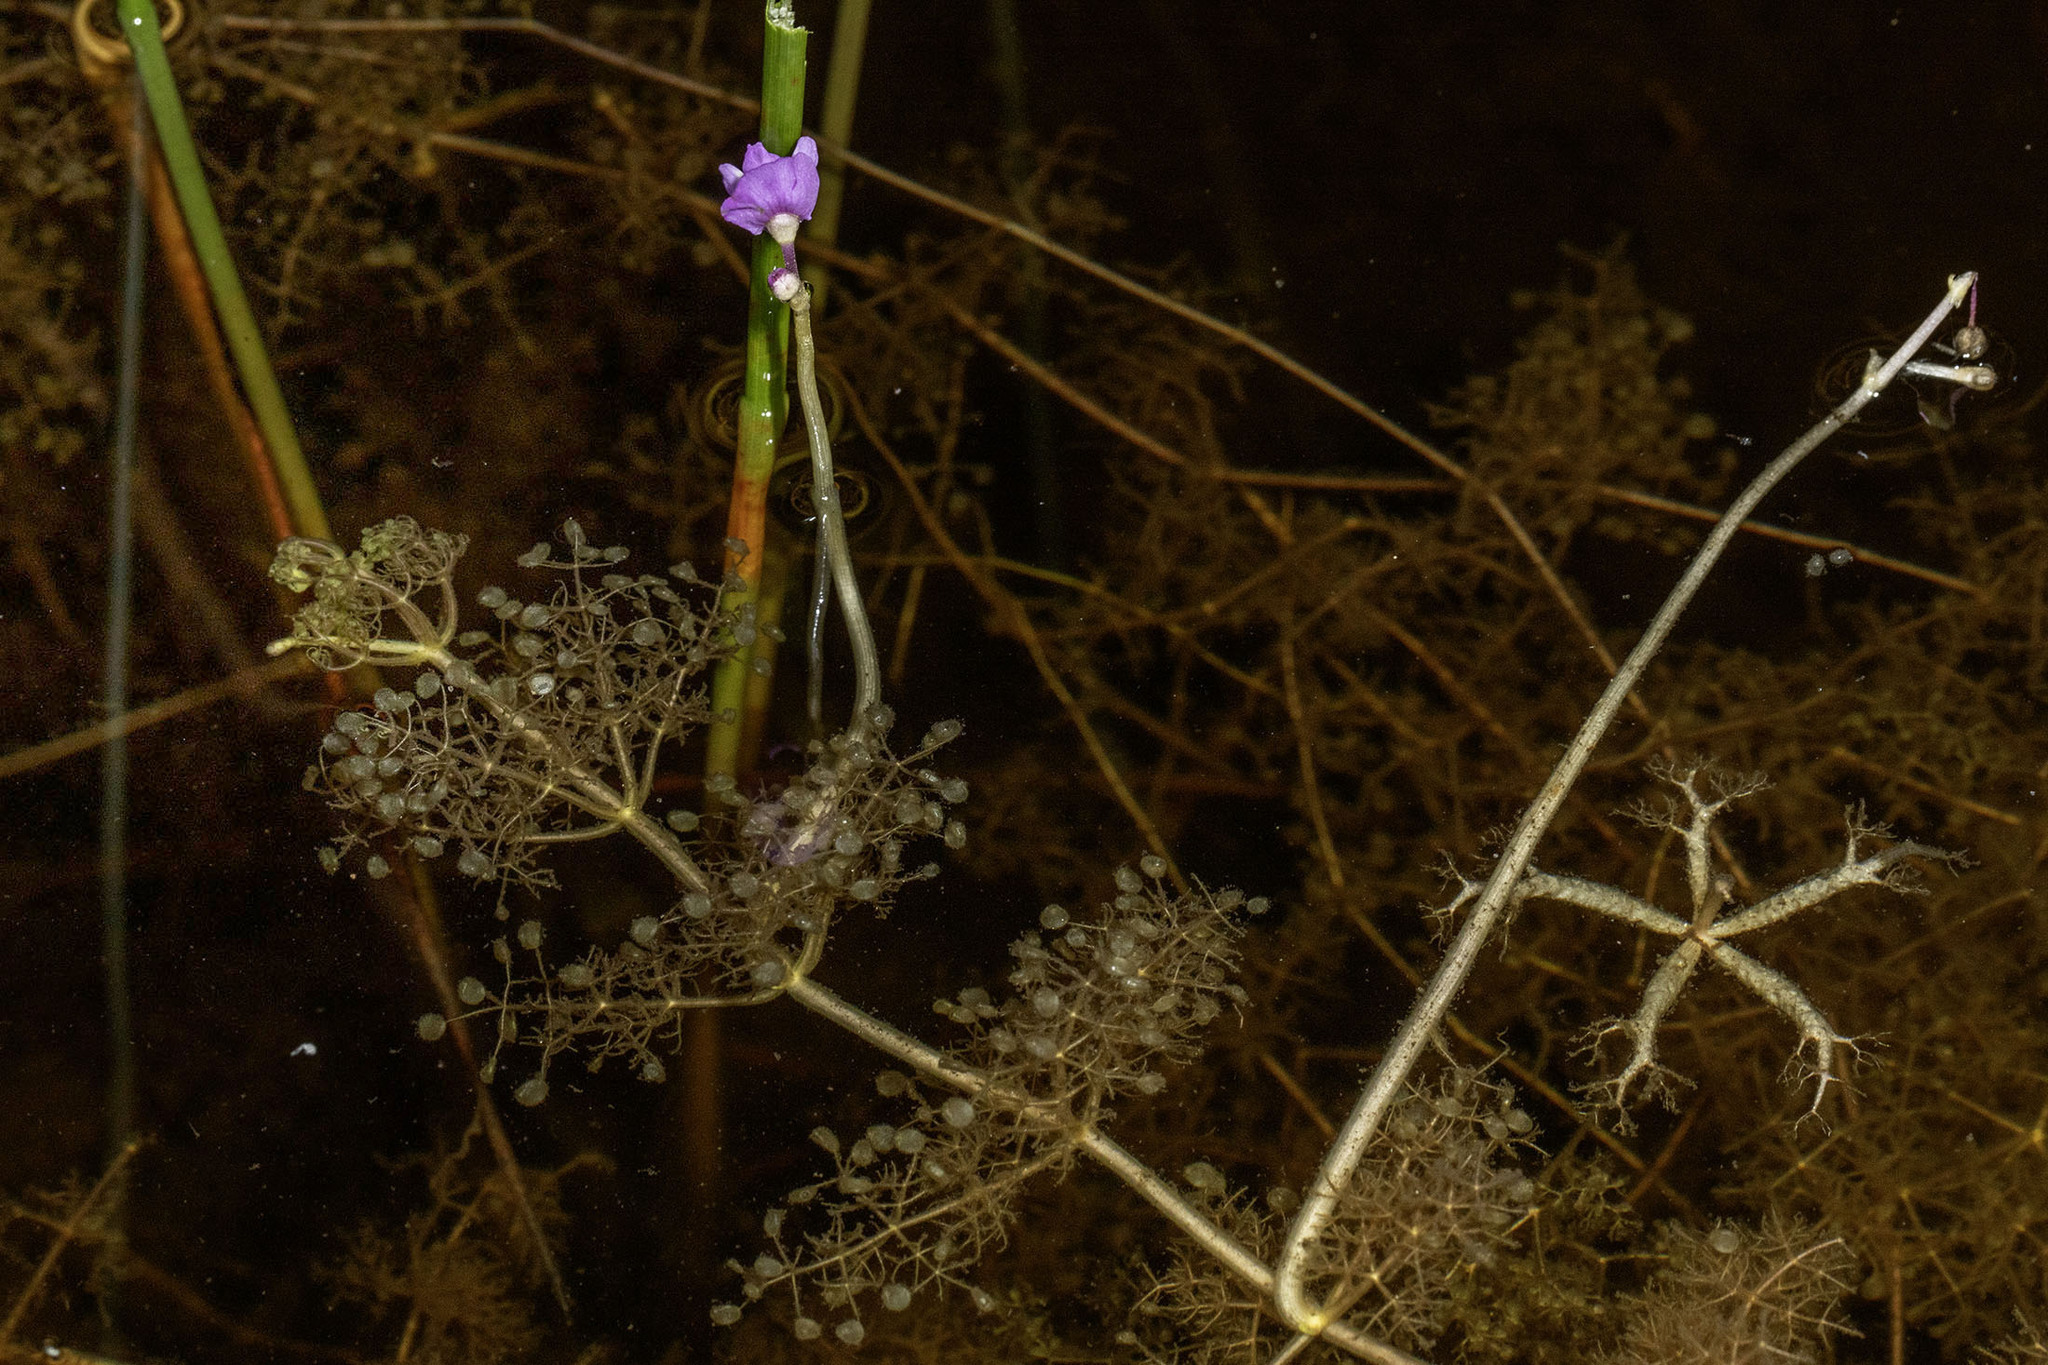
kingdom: Plantae
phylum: Tracheophyta
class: Magnoliopsida
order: Lamiales
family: Lentibulariaceae
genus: Utricularia
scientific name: Utricularia radiata
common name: Floating bladderwort
